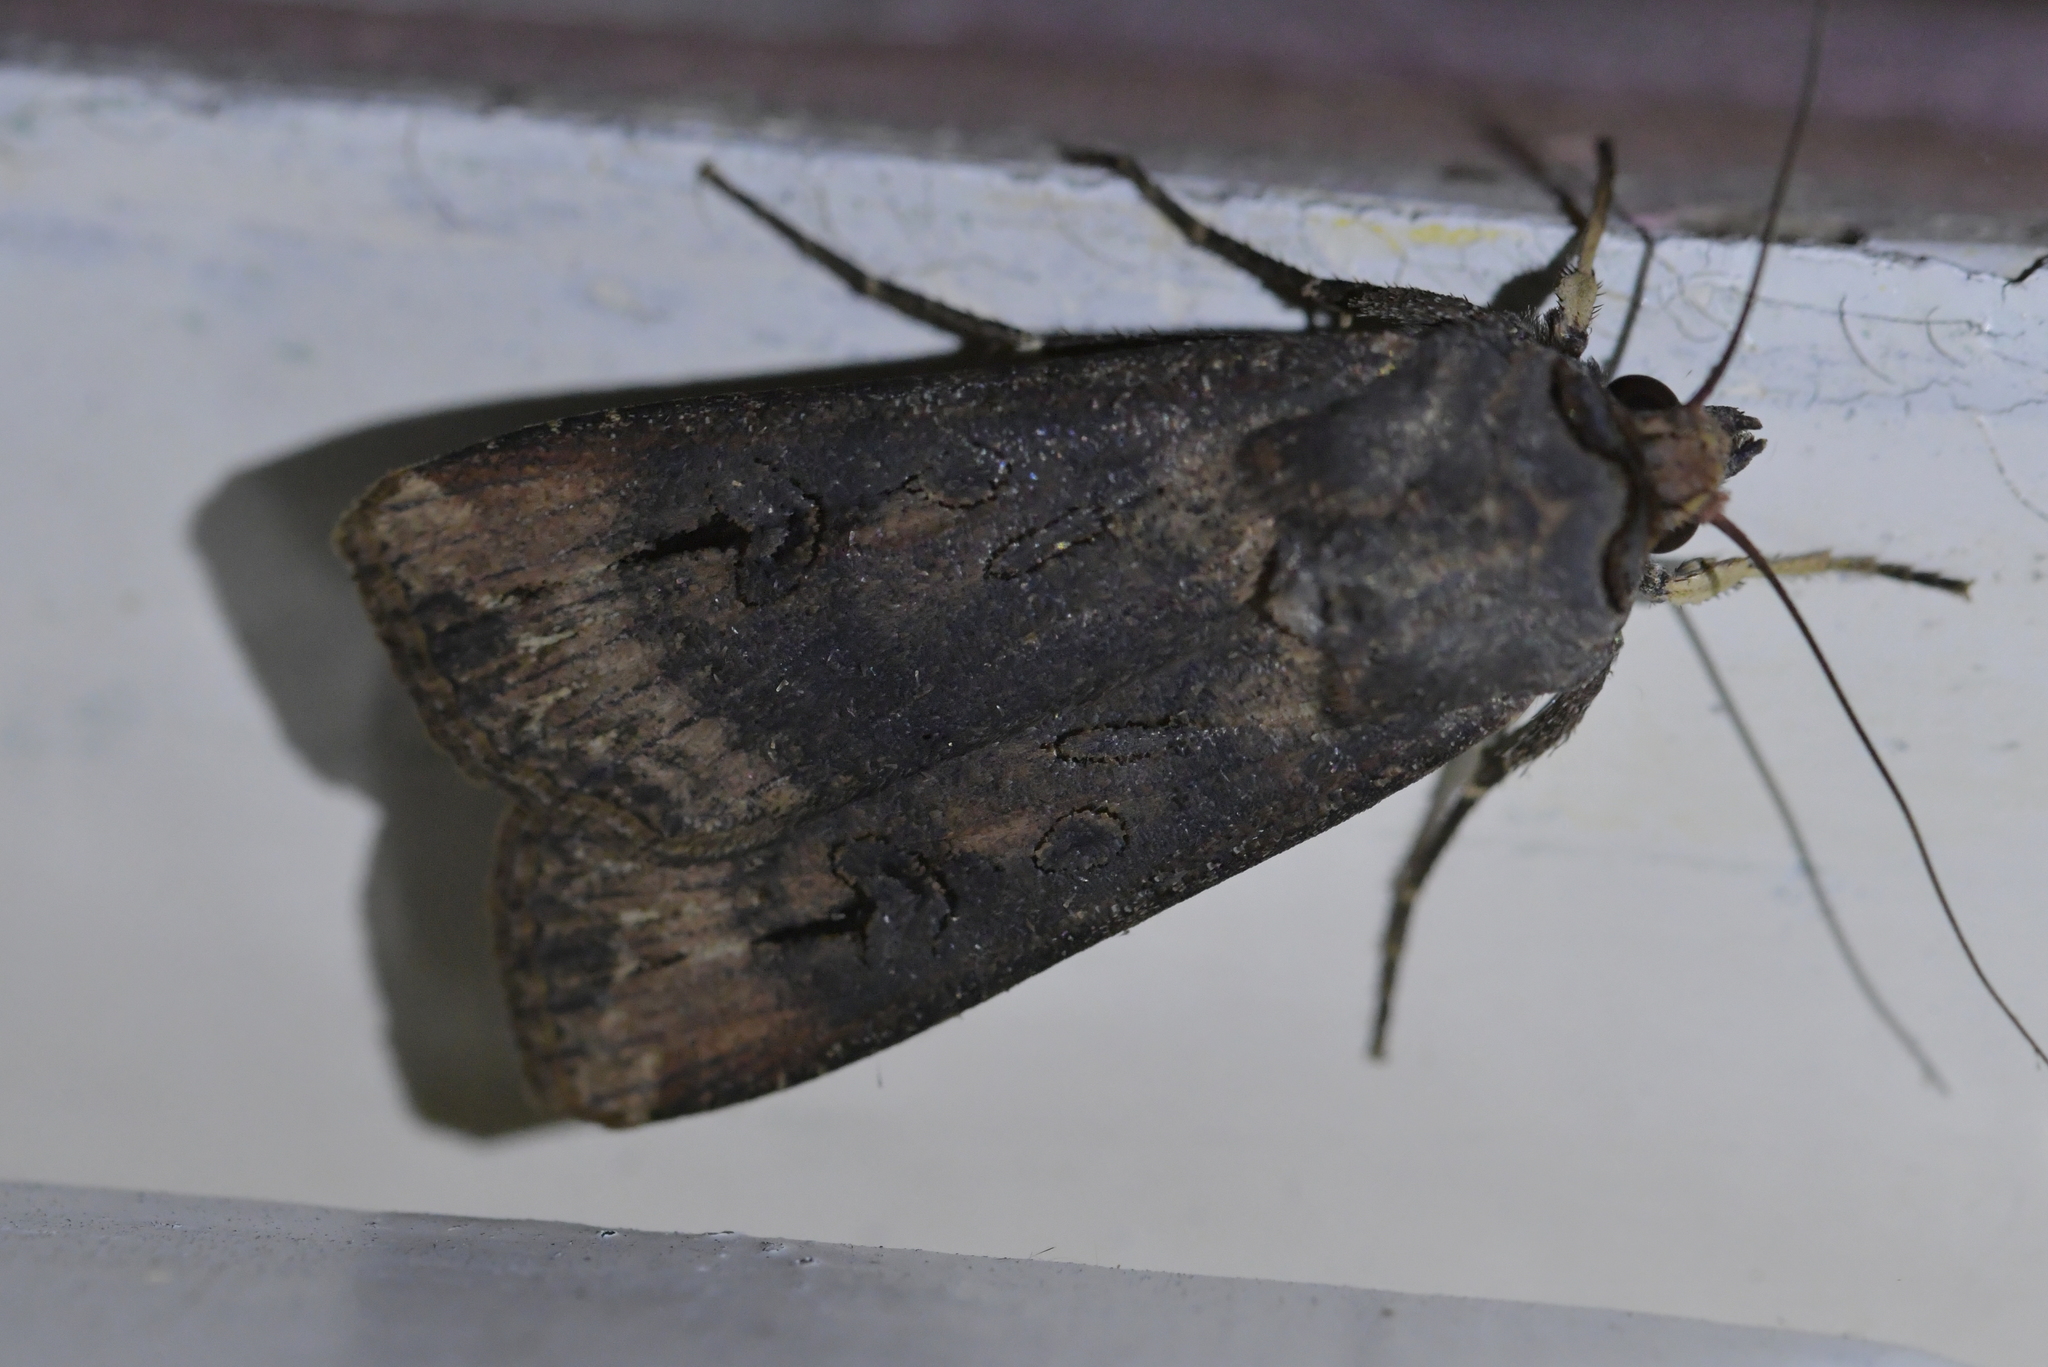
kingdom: Animalia
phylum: Arthropoda
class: Insecta
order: Lepidoptera
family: Noctuidae
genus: Agrotis
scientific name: Agrotis ipsilon
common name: Dark sword-grass
